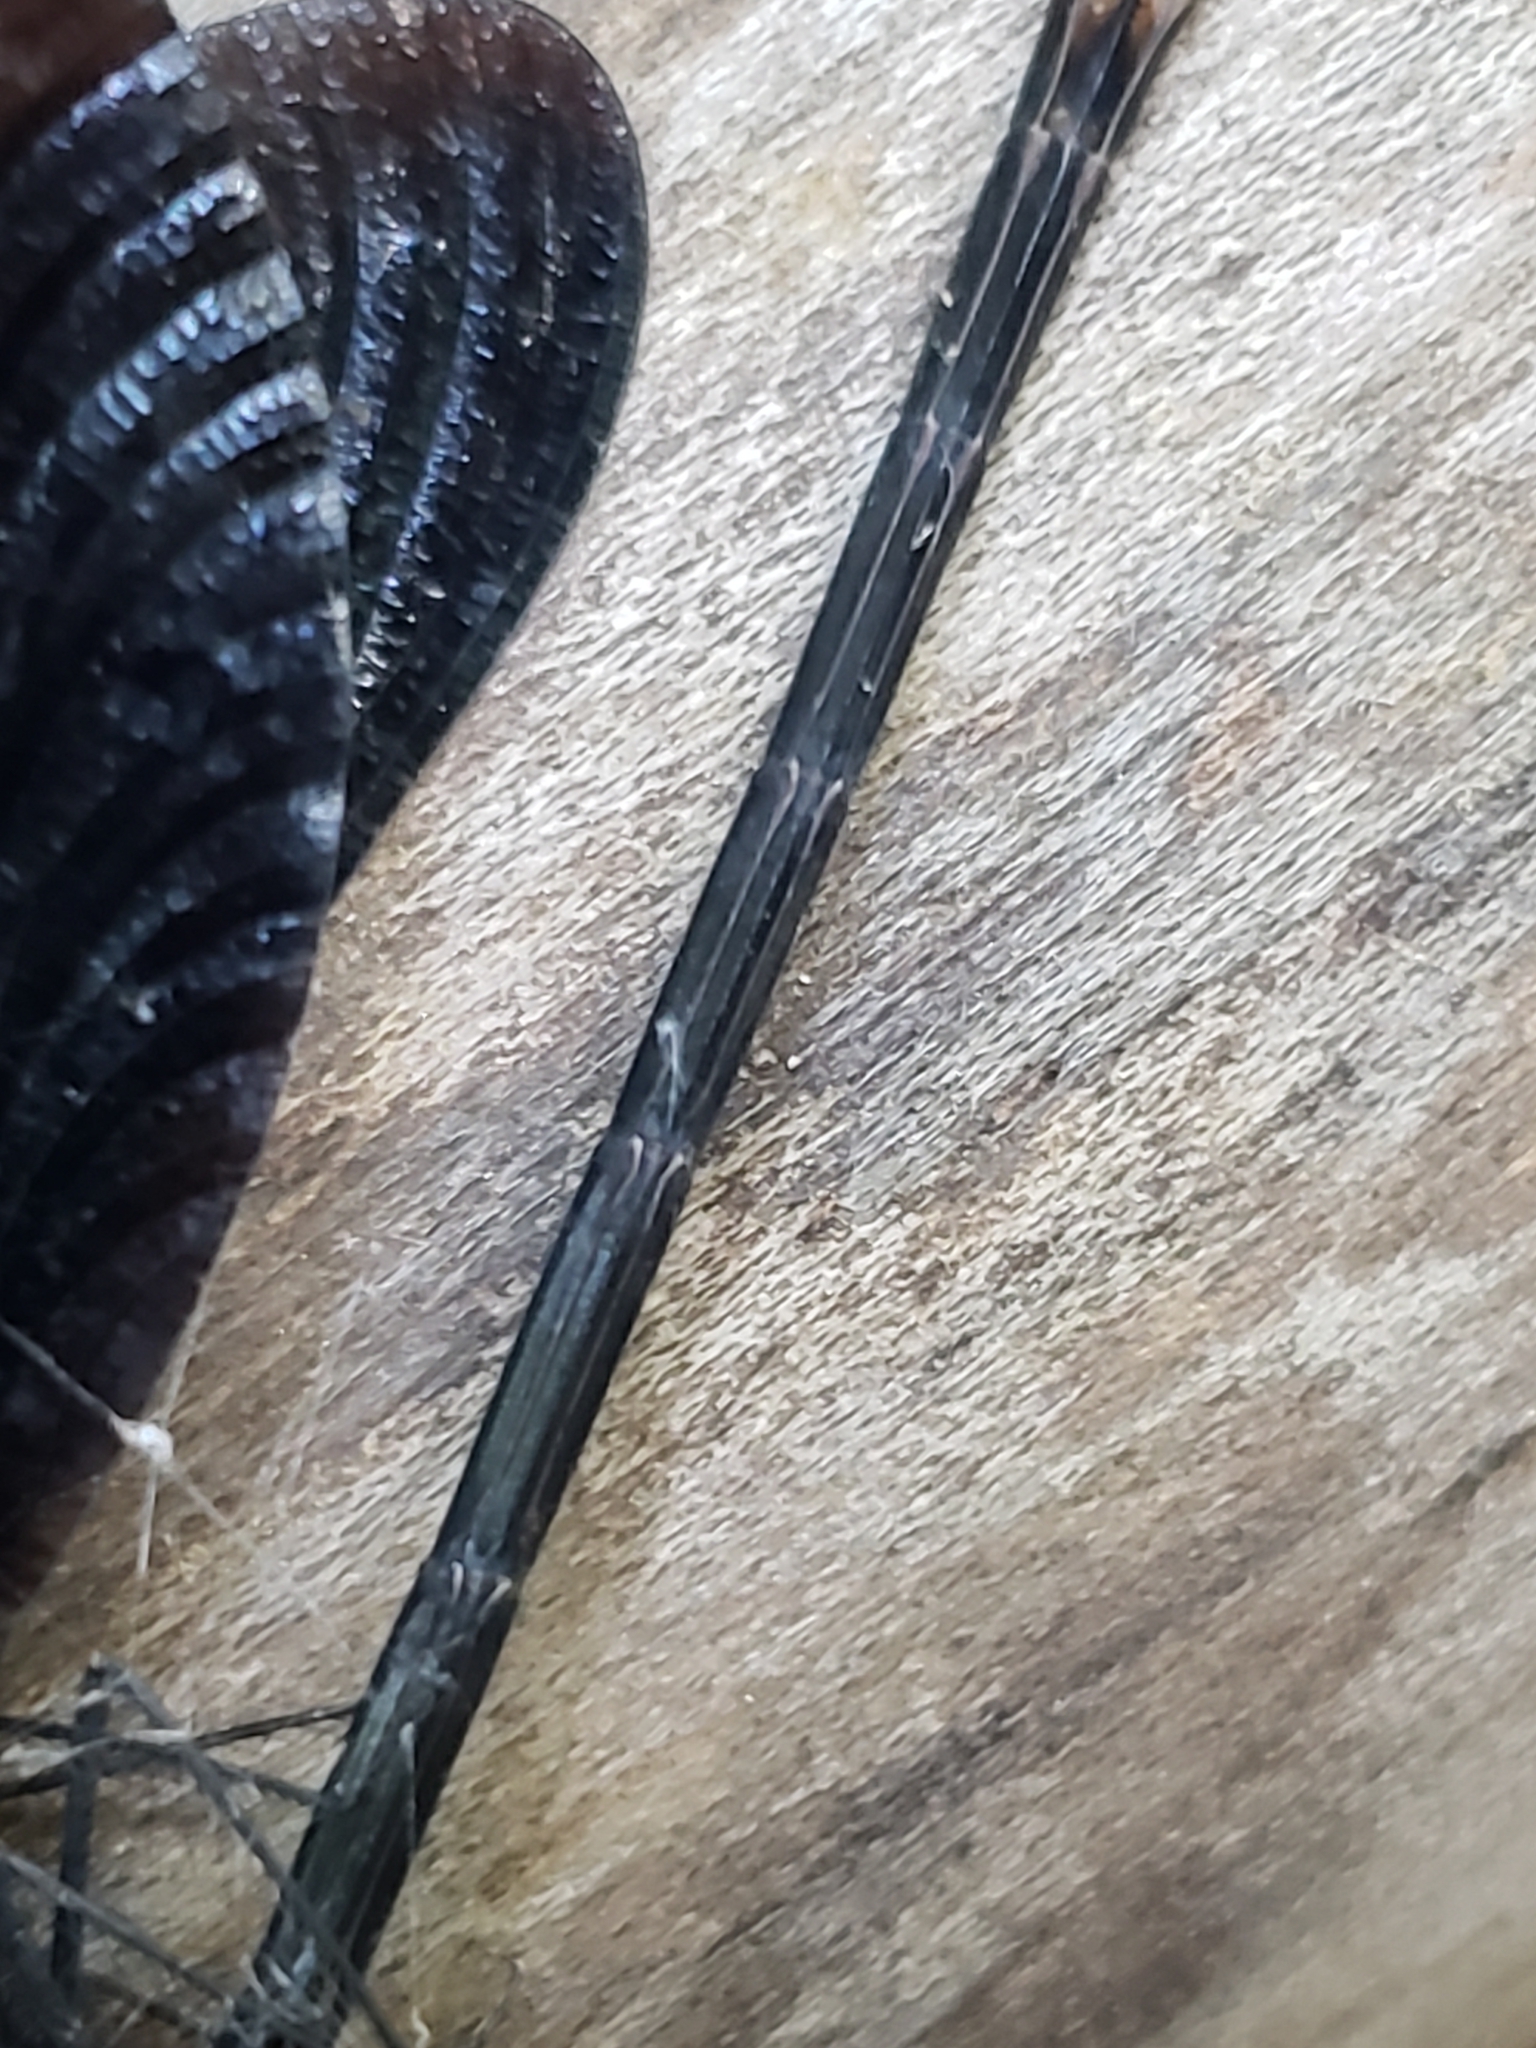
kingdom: Animalia
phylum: Arthropoda
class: Insecta
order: Odonata
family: Calopterygidae
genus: Calopteryx
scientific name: Calopteryx maculata
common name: Ebony jewelwing
